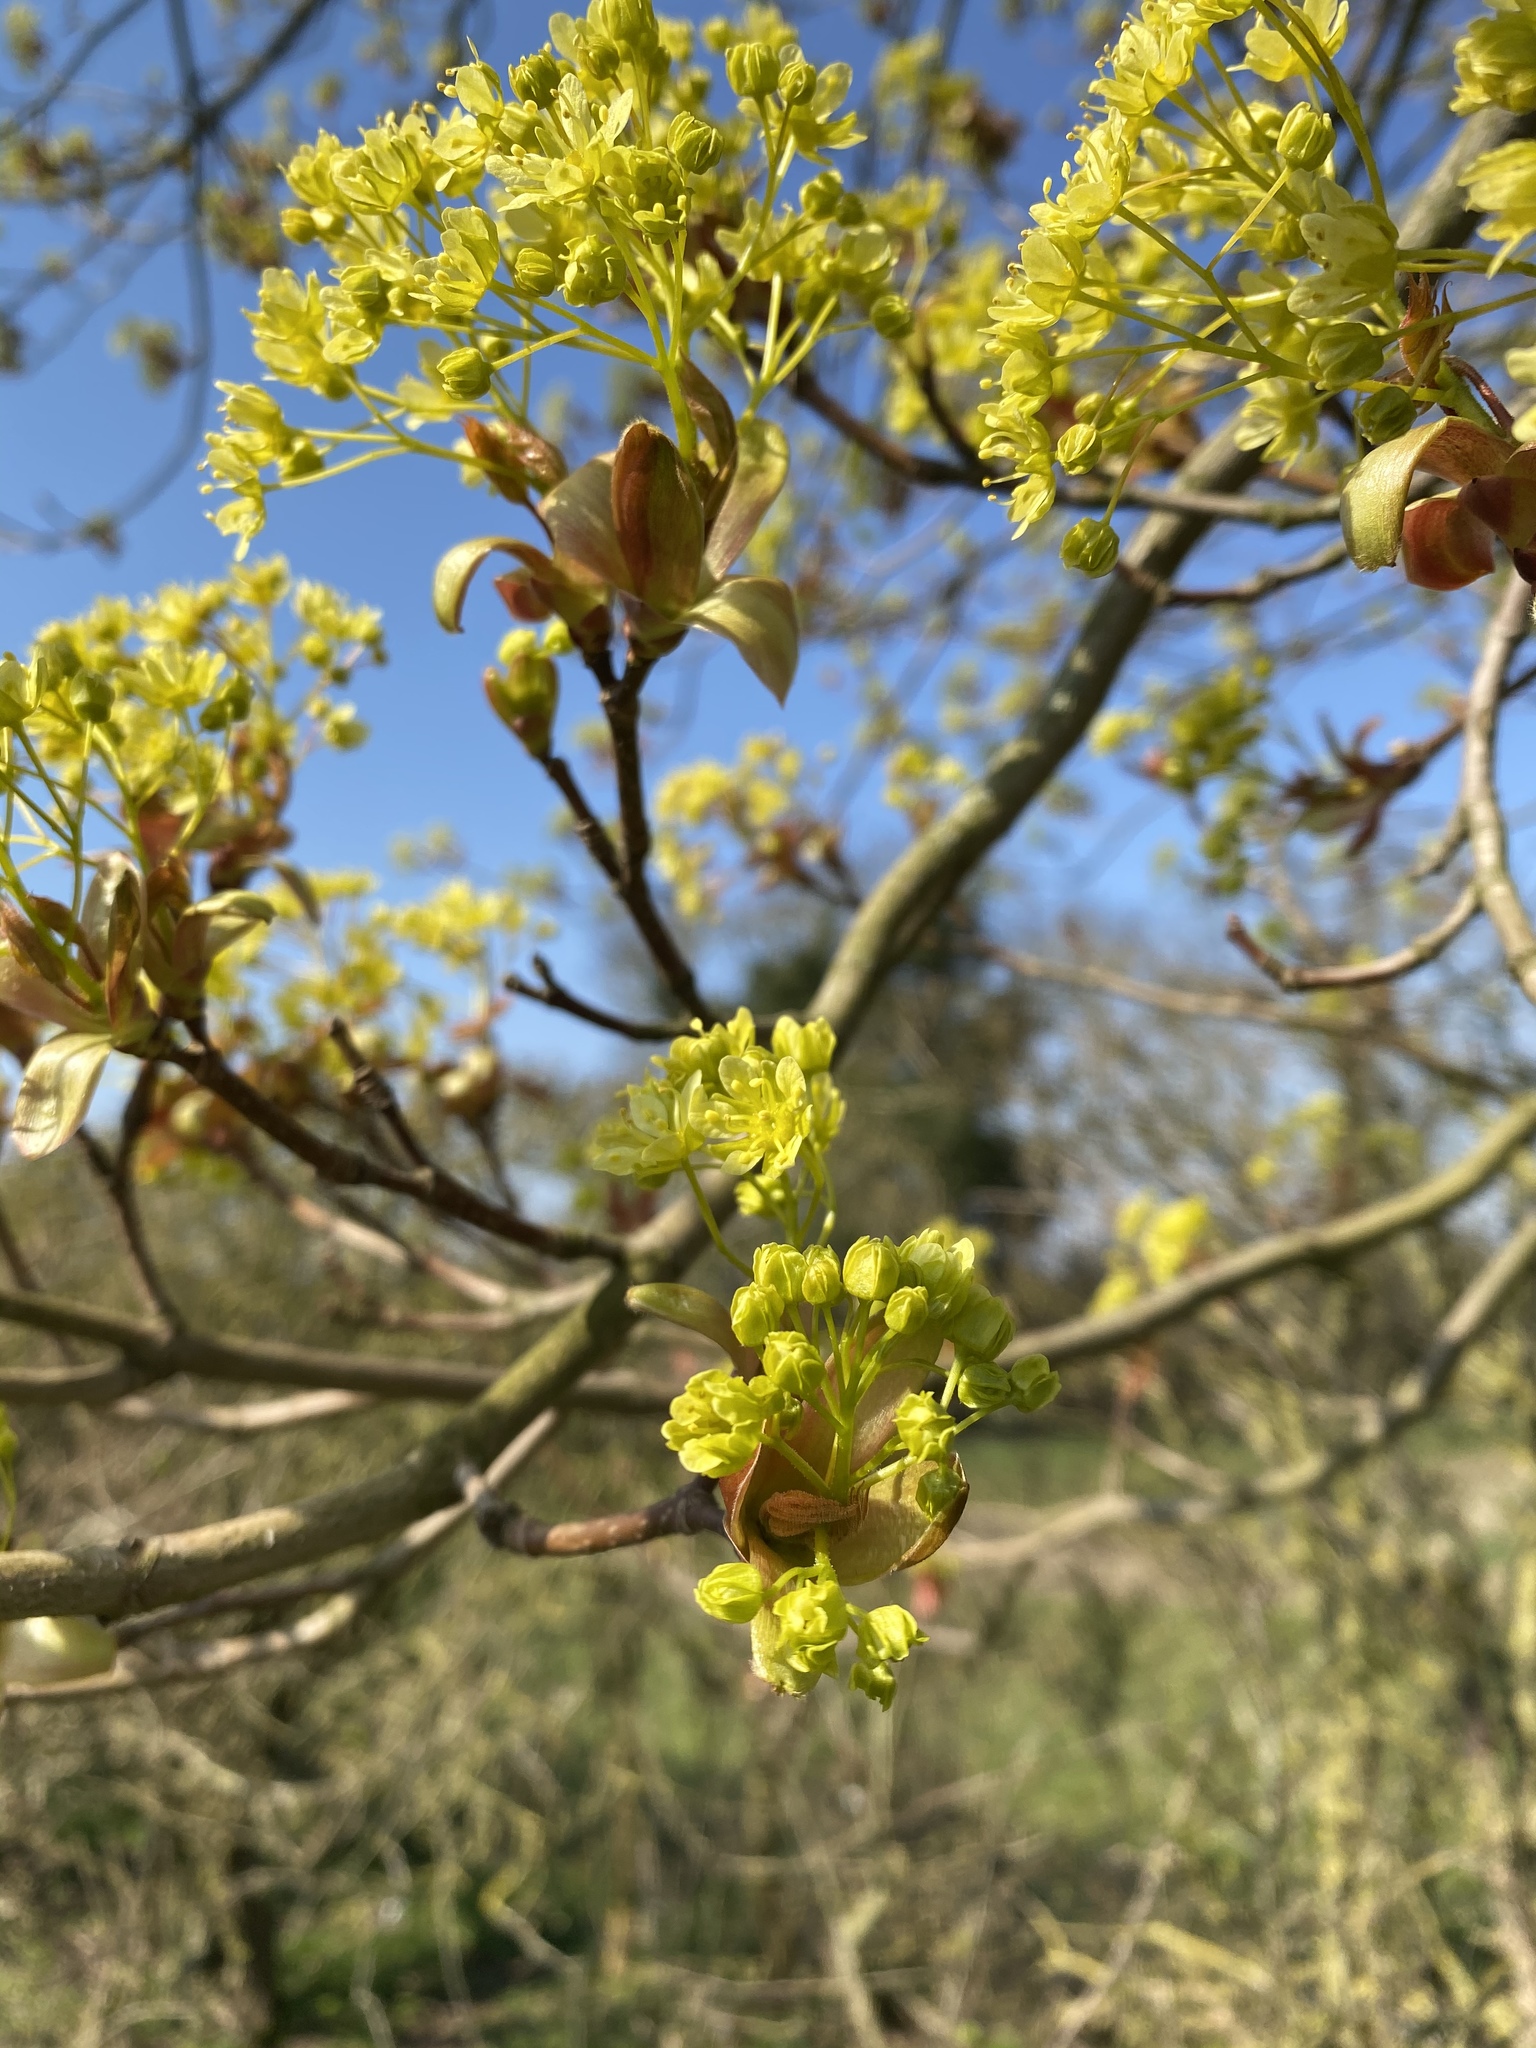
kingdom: Plantae
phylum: Tracheophyta
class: Magnoliopsida
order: Sapindales
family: Sapindaceae
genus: Acer
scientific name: Acer platanoides
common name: Norway maple
